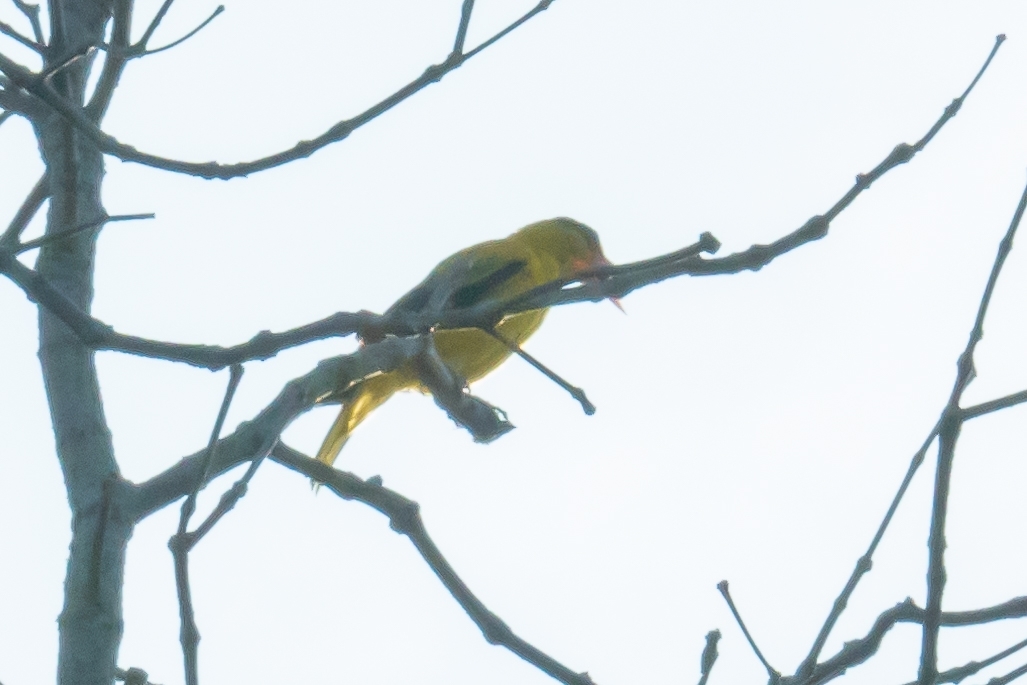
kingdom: Animalia
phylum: Chordata
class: Aves
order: Passeriformes
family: Oriolidae
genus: Oriolus
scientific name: Oriolus chinensis
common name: Black-naped oriole
